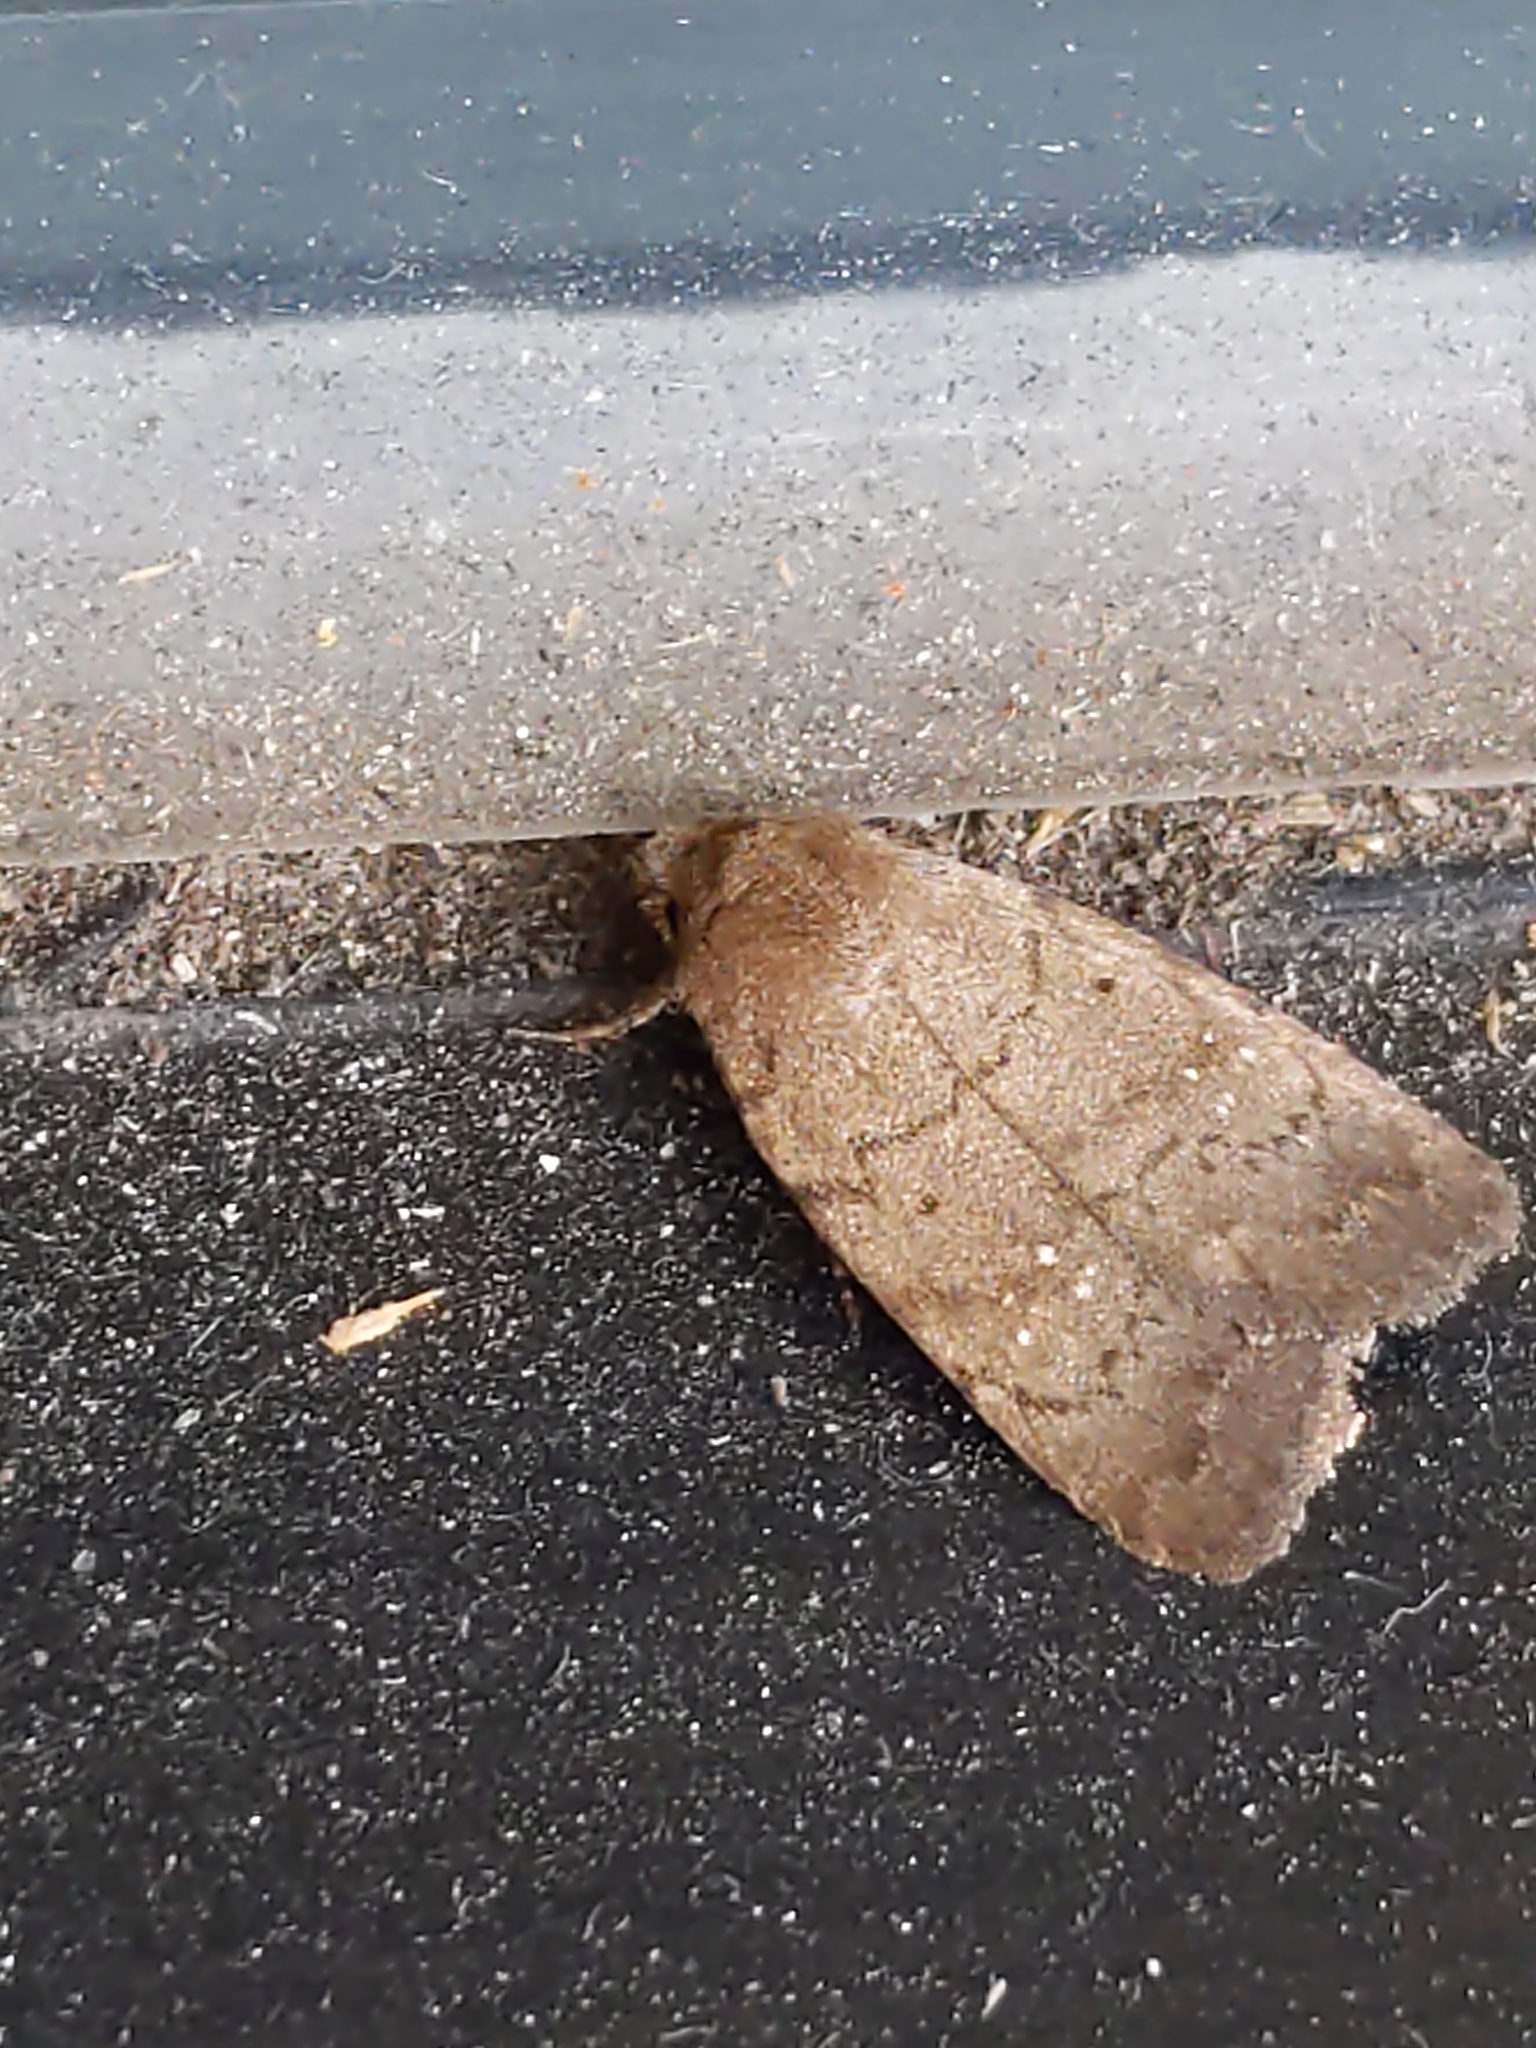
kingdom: Animalia
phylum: Arthropoda
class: Insecta
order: Lepidoptera
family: Noctuidae
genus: Athetis
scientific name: Athetis tarda
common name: Slowpoke moth
